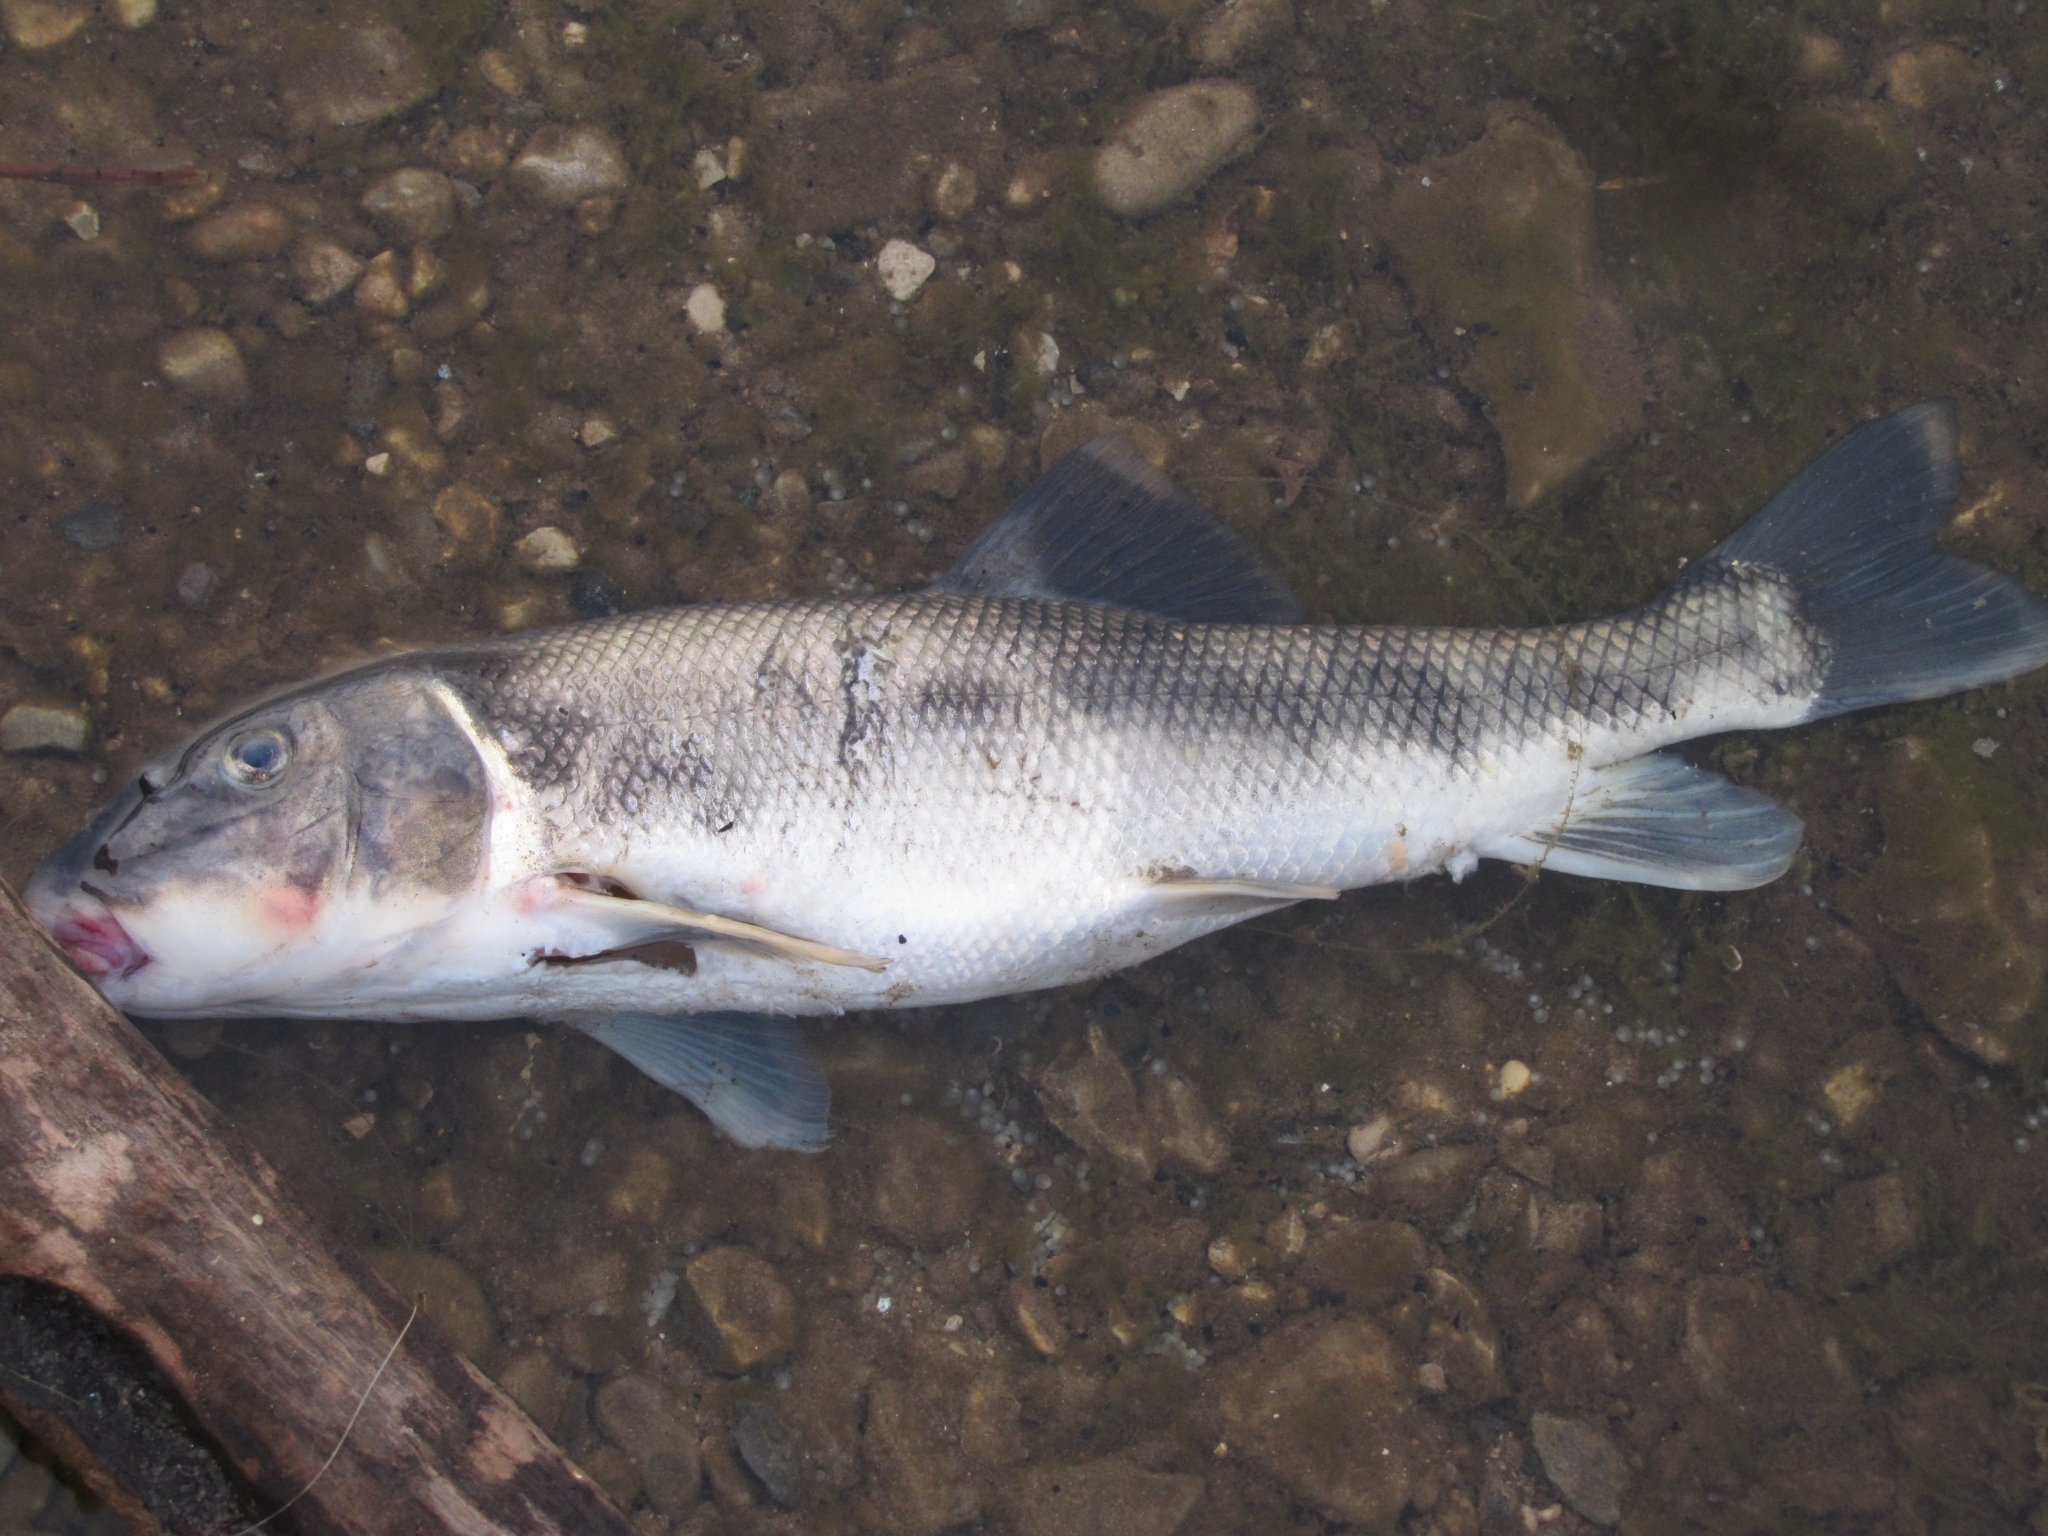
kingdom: Animalia
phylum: Chordata
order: Cypriniformes
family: Catostomidae
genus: Catostomus
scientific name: Catostomus commersonii
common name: White sucker
